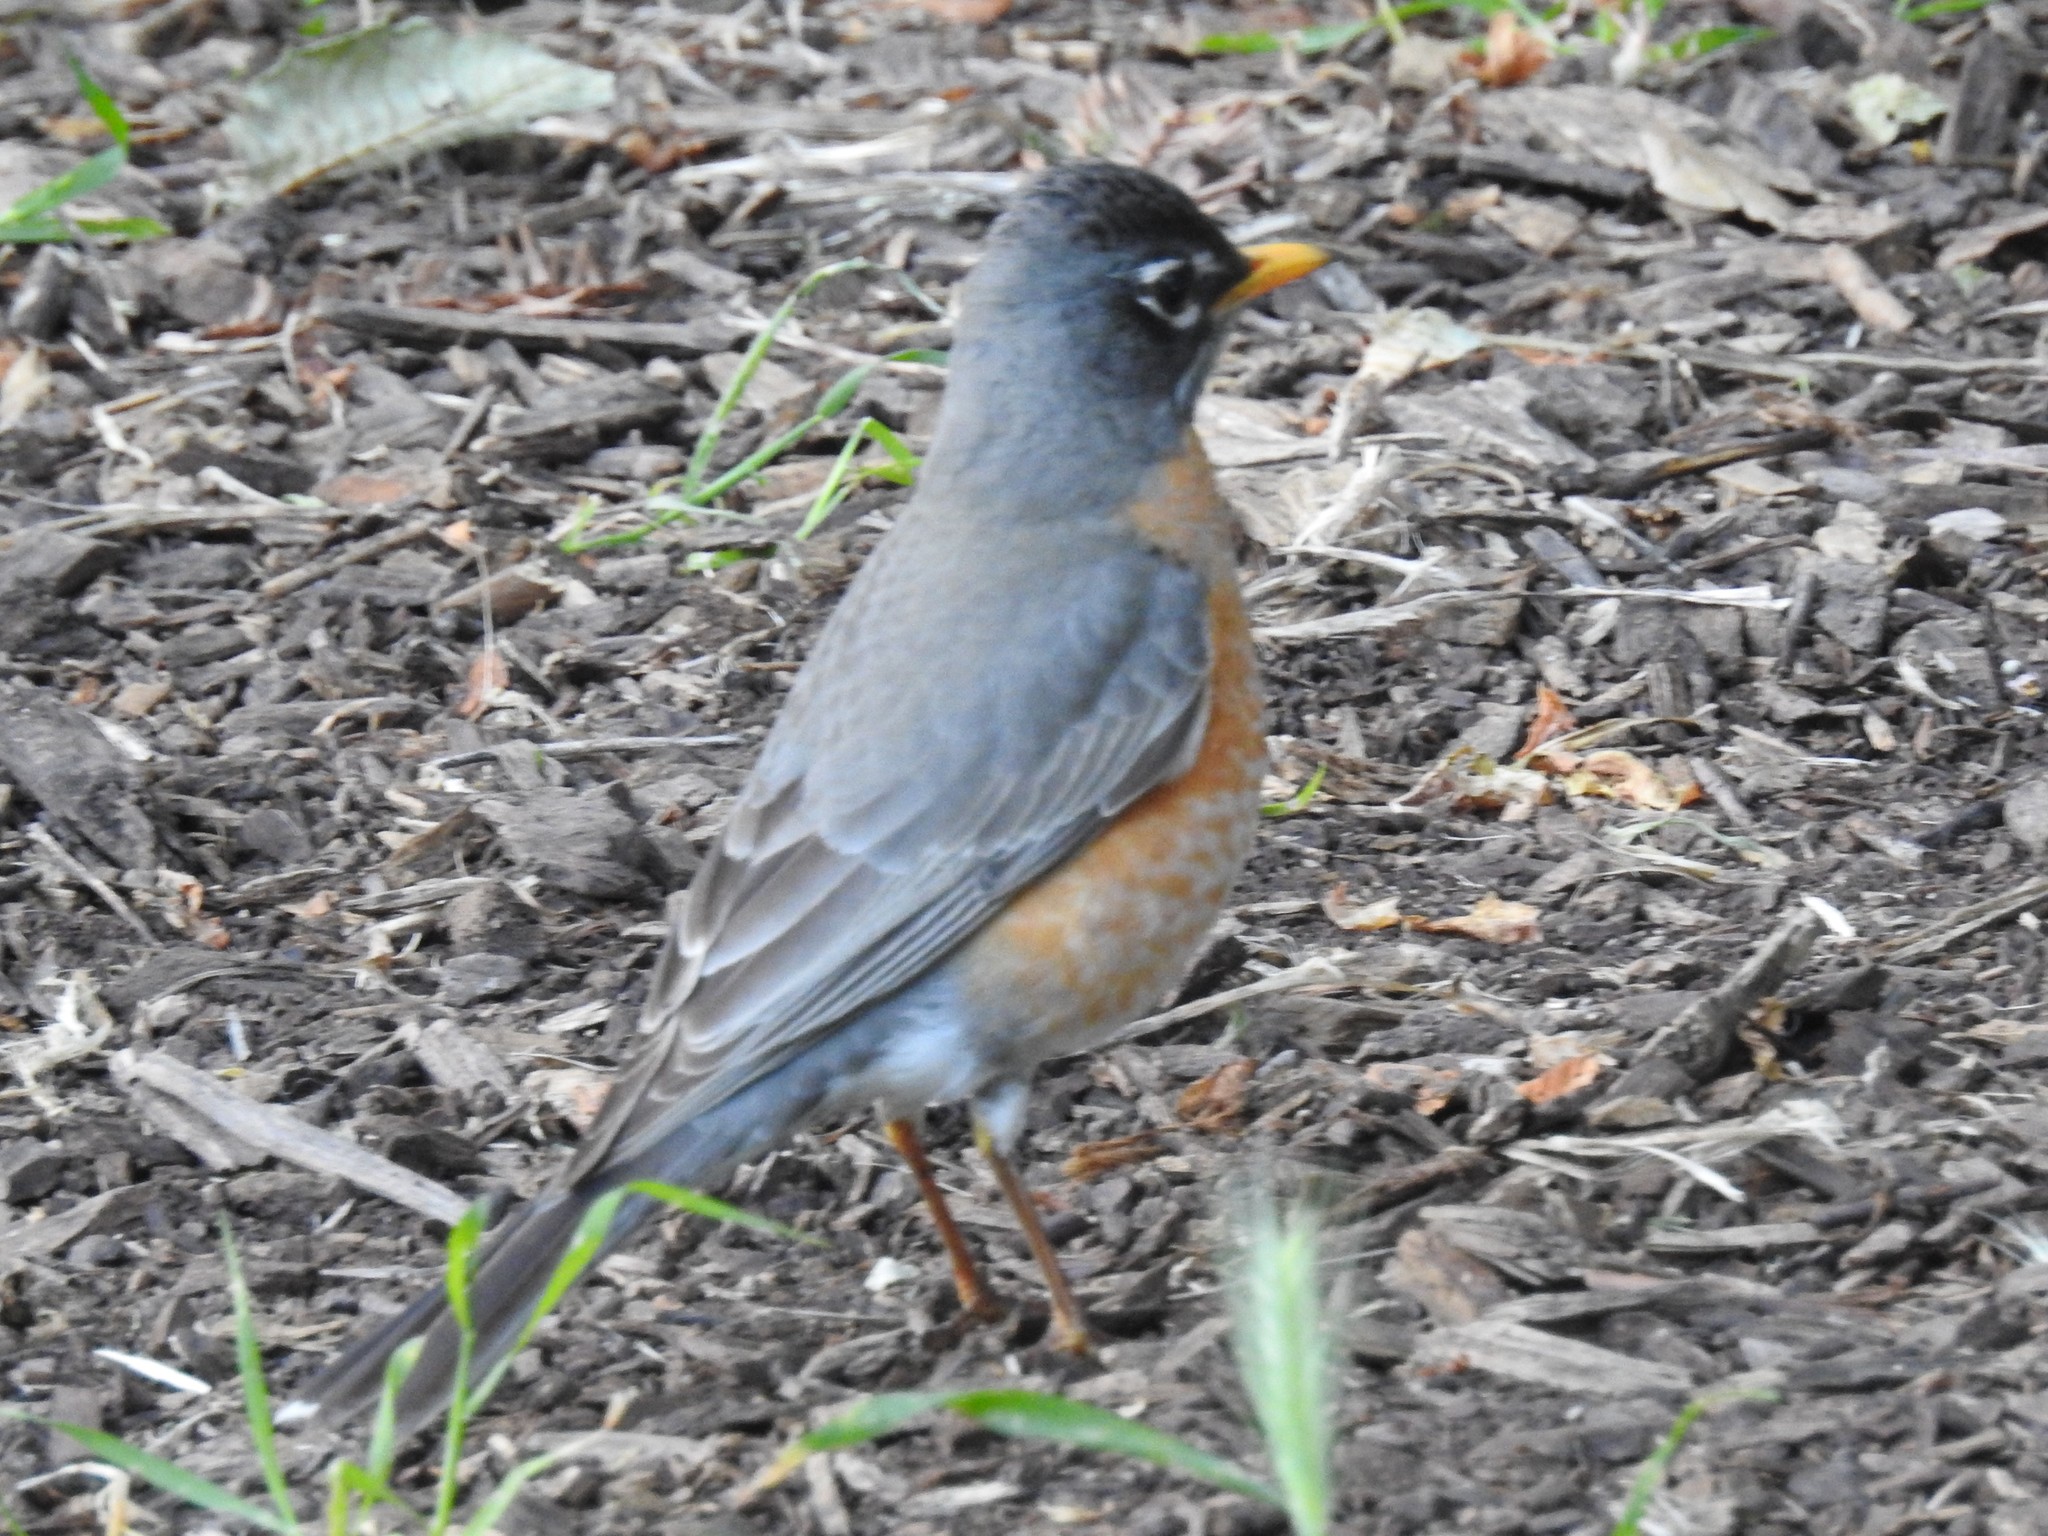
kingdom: Animalia
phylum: Chordata
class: Aves
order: Passeriformes
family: Turdidae
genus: Turdus
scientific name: Turdus migratorius
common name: American robin
